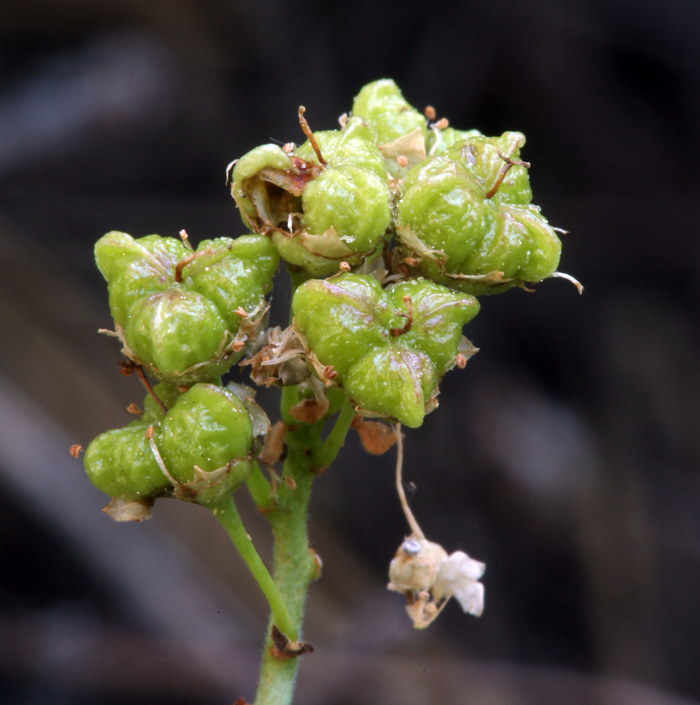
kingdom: Plantae
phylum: Tracheophyta
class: Magnoliopsida
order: Rosales
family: Rhamnaceae
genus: Ceanothus
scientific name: Ceanothus cordulatus
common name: Mountain whitethorn
